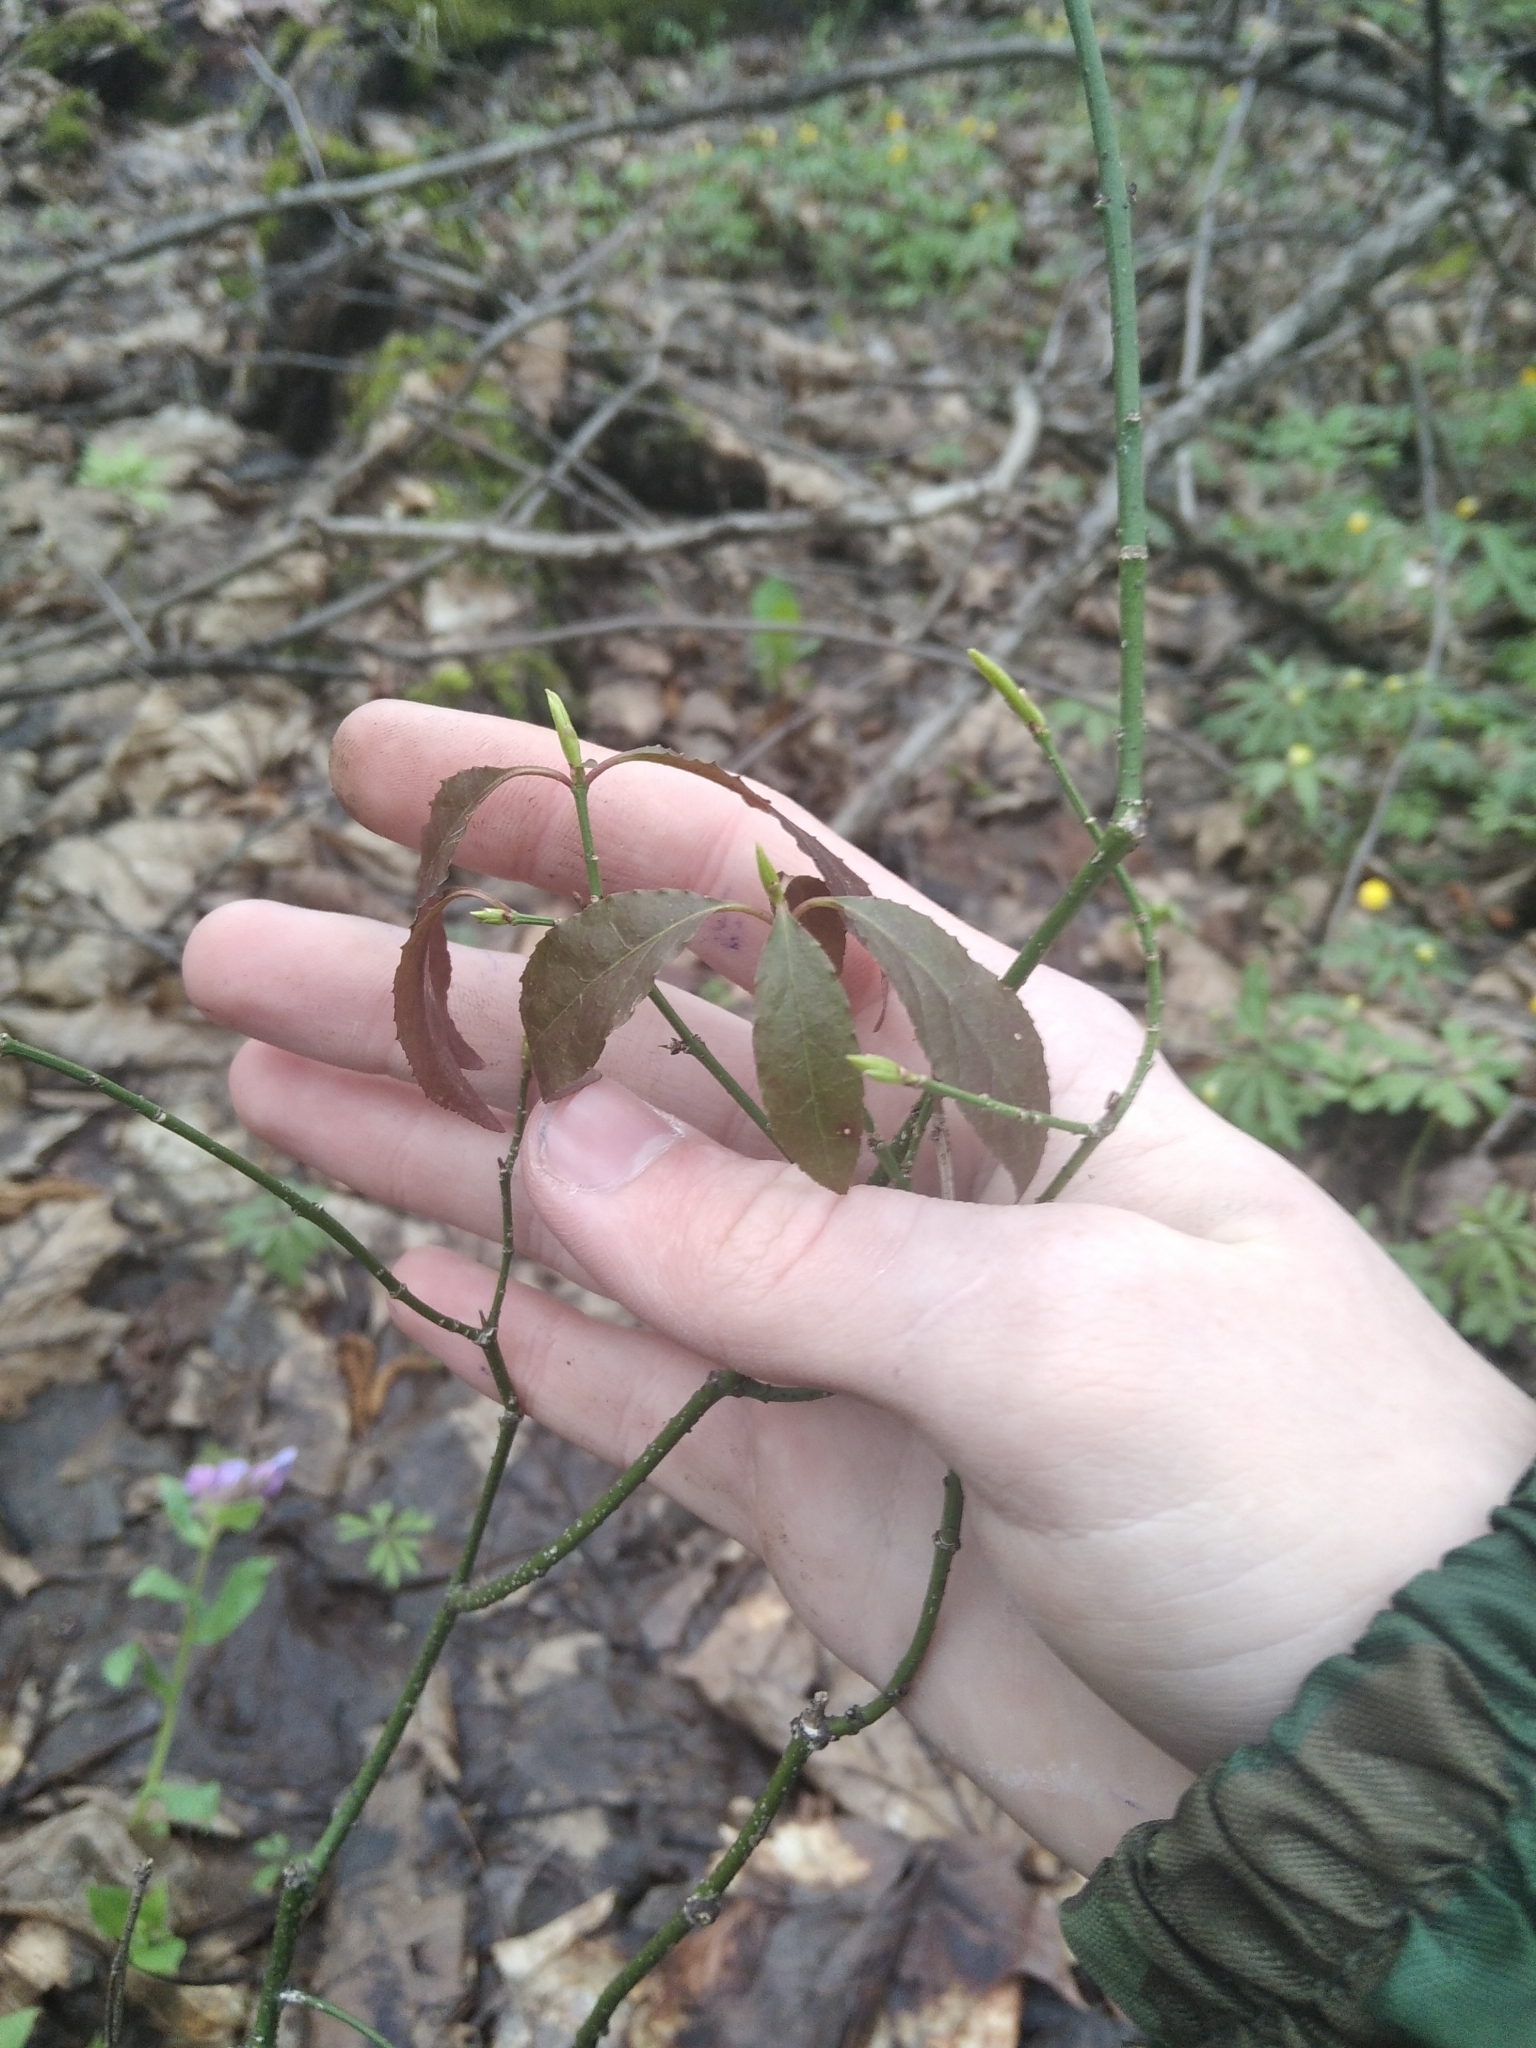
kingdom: Plantae
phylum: Tracheophyta
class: Magnoliopsida
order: Celastrales
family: Celastraceae
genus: Euonymus
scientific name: Euonymus verrucosus
